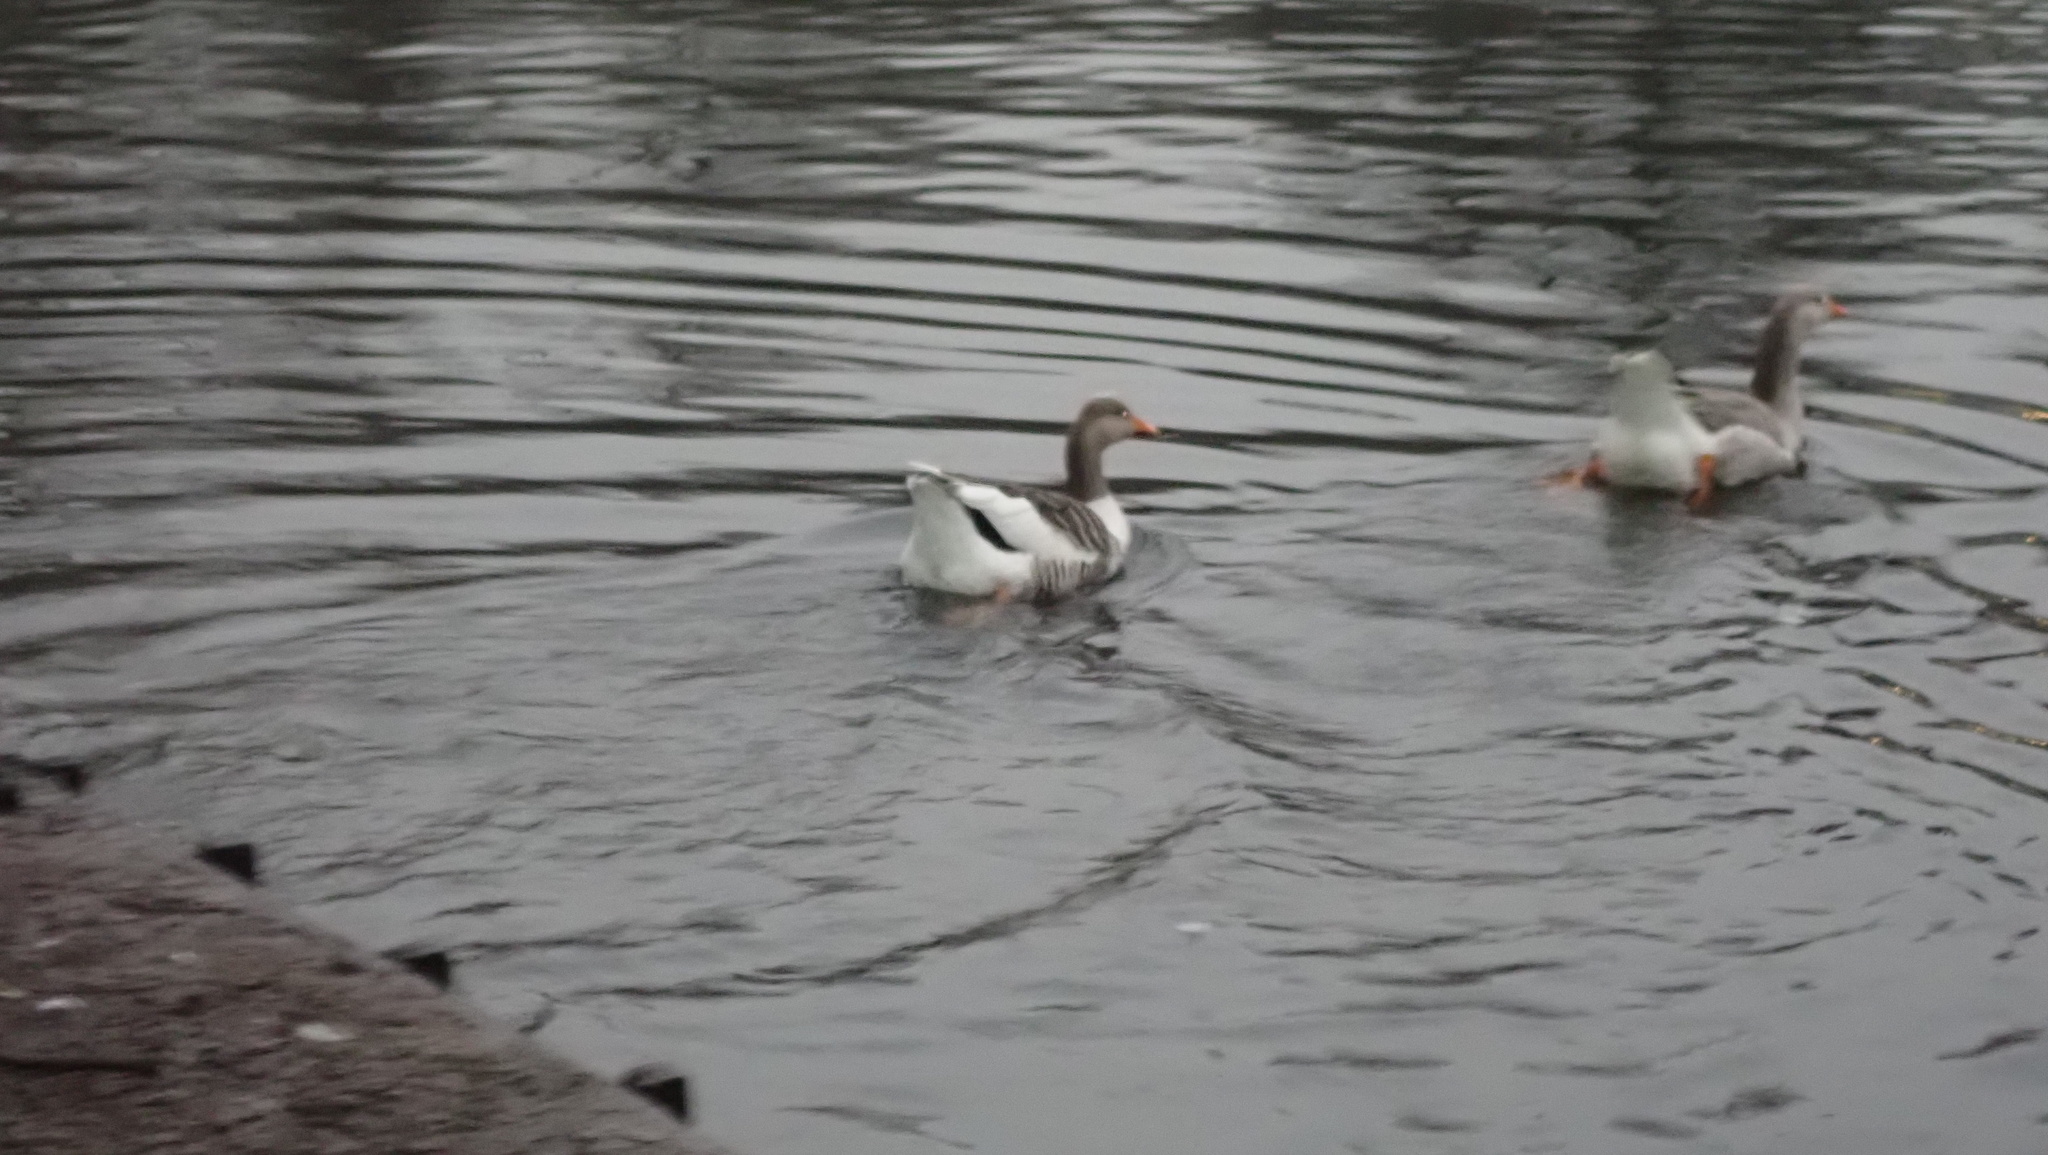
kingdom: Animalia
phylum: Chordata
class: Aves
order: Anseriformes
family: Anatidae
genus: Anser
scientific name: Anser anser
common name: Greylag goose
